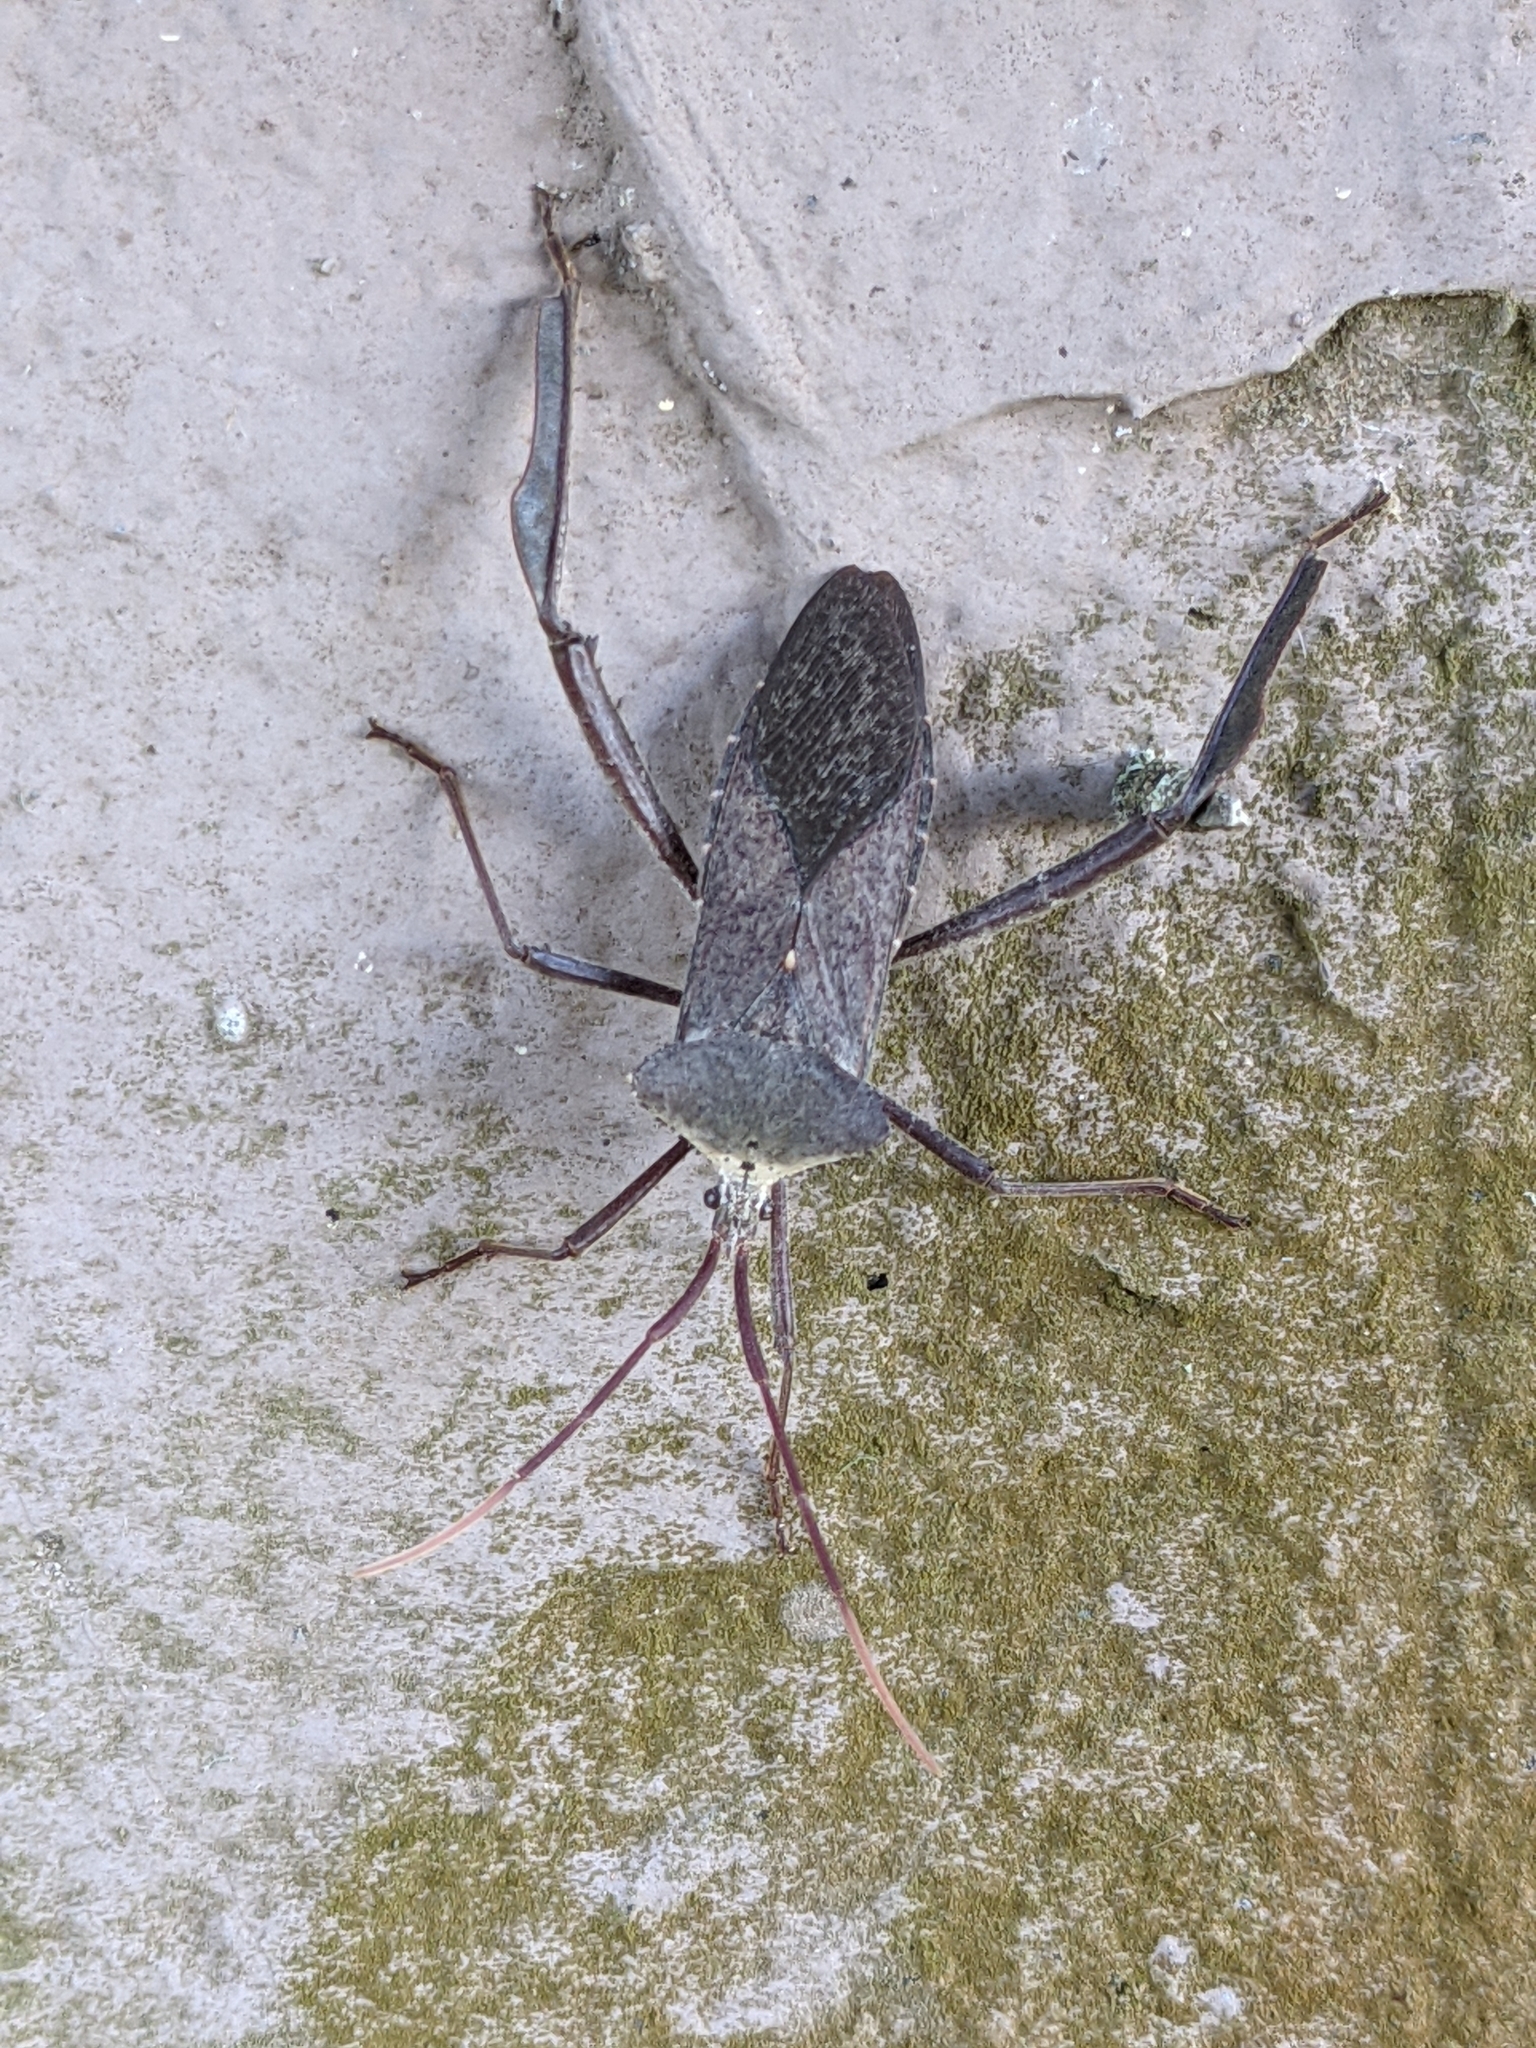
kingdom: Animalia
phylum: Arthropoda
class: Insecta
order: Hemiptera
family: Coreidae
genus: Acanthocephala
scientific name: Acanthocephala declivis
